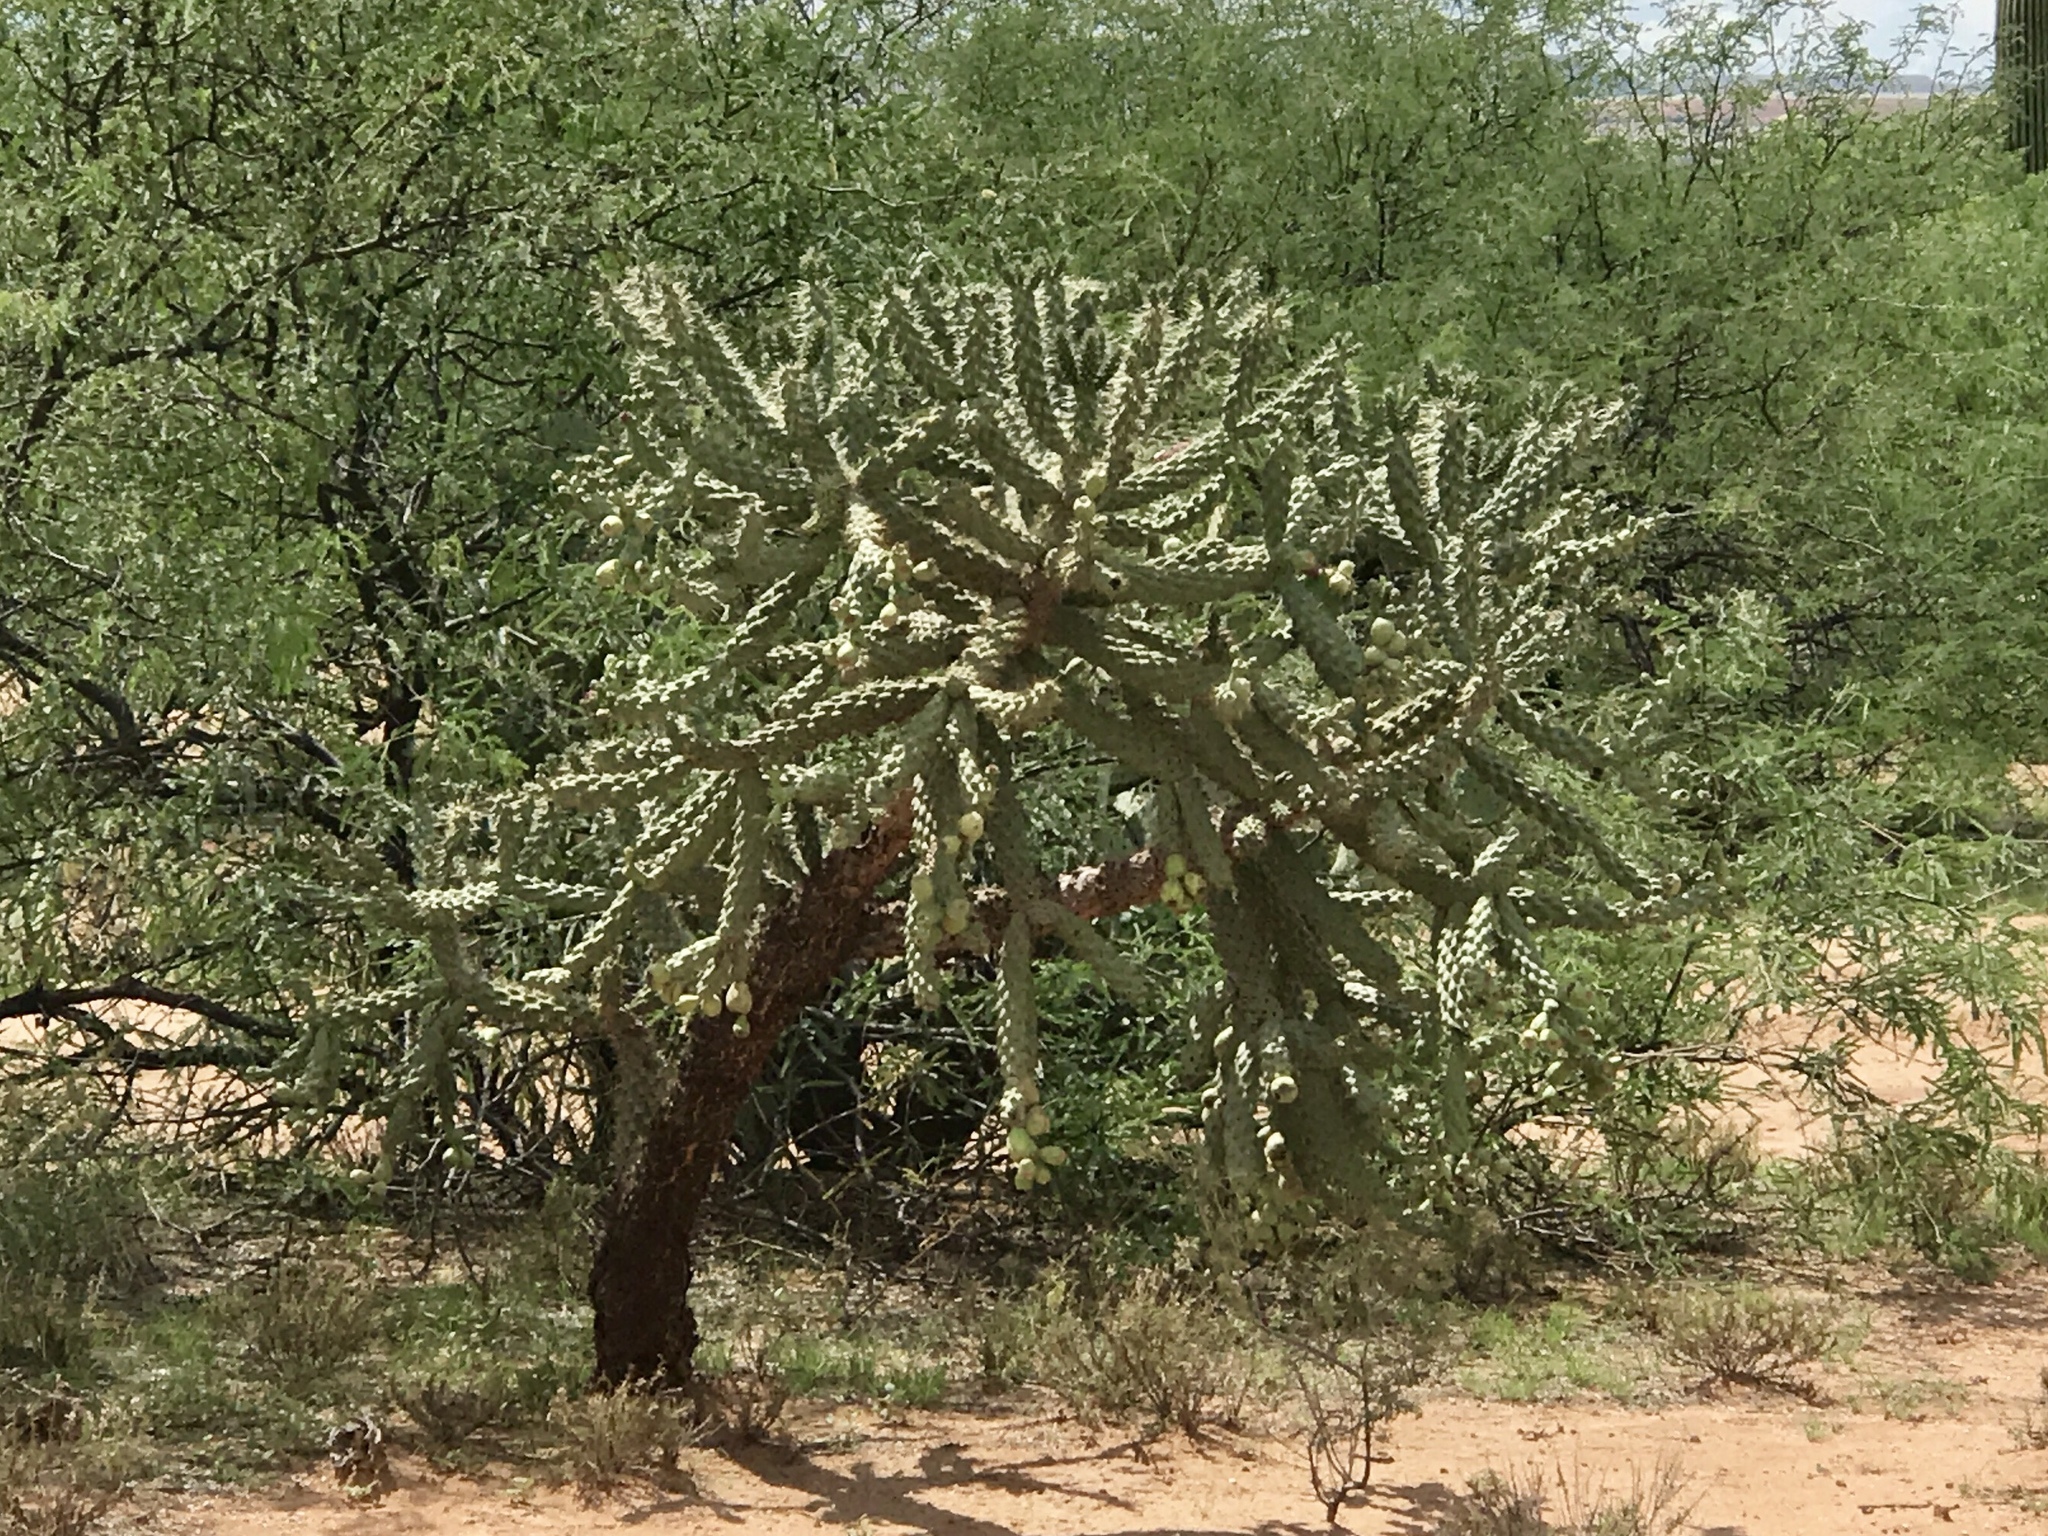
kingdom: Plantae
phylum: Tracheophyta
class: Magnoliopsida
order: Caryophyllales
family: Cactaceae
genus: Cylindropuntia
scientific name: Cylindropuntia fulgida
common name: Jumping cholla
